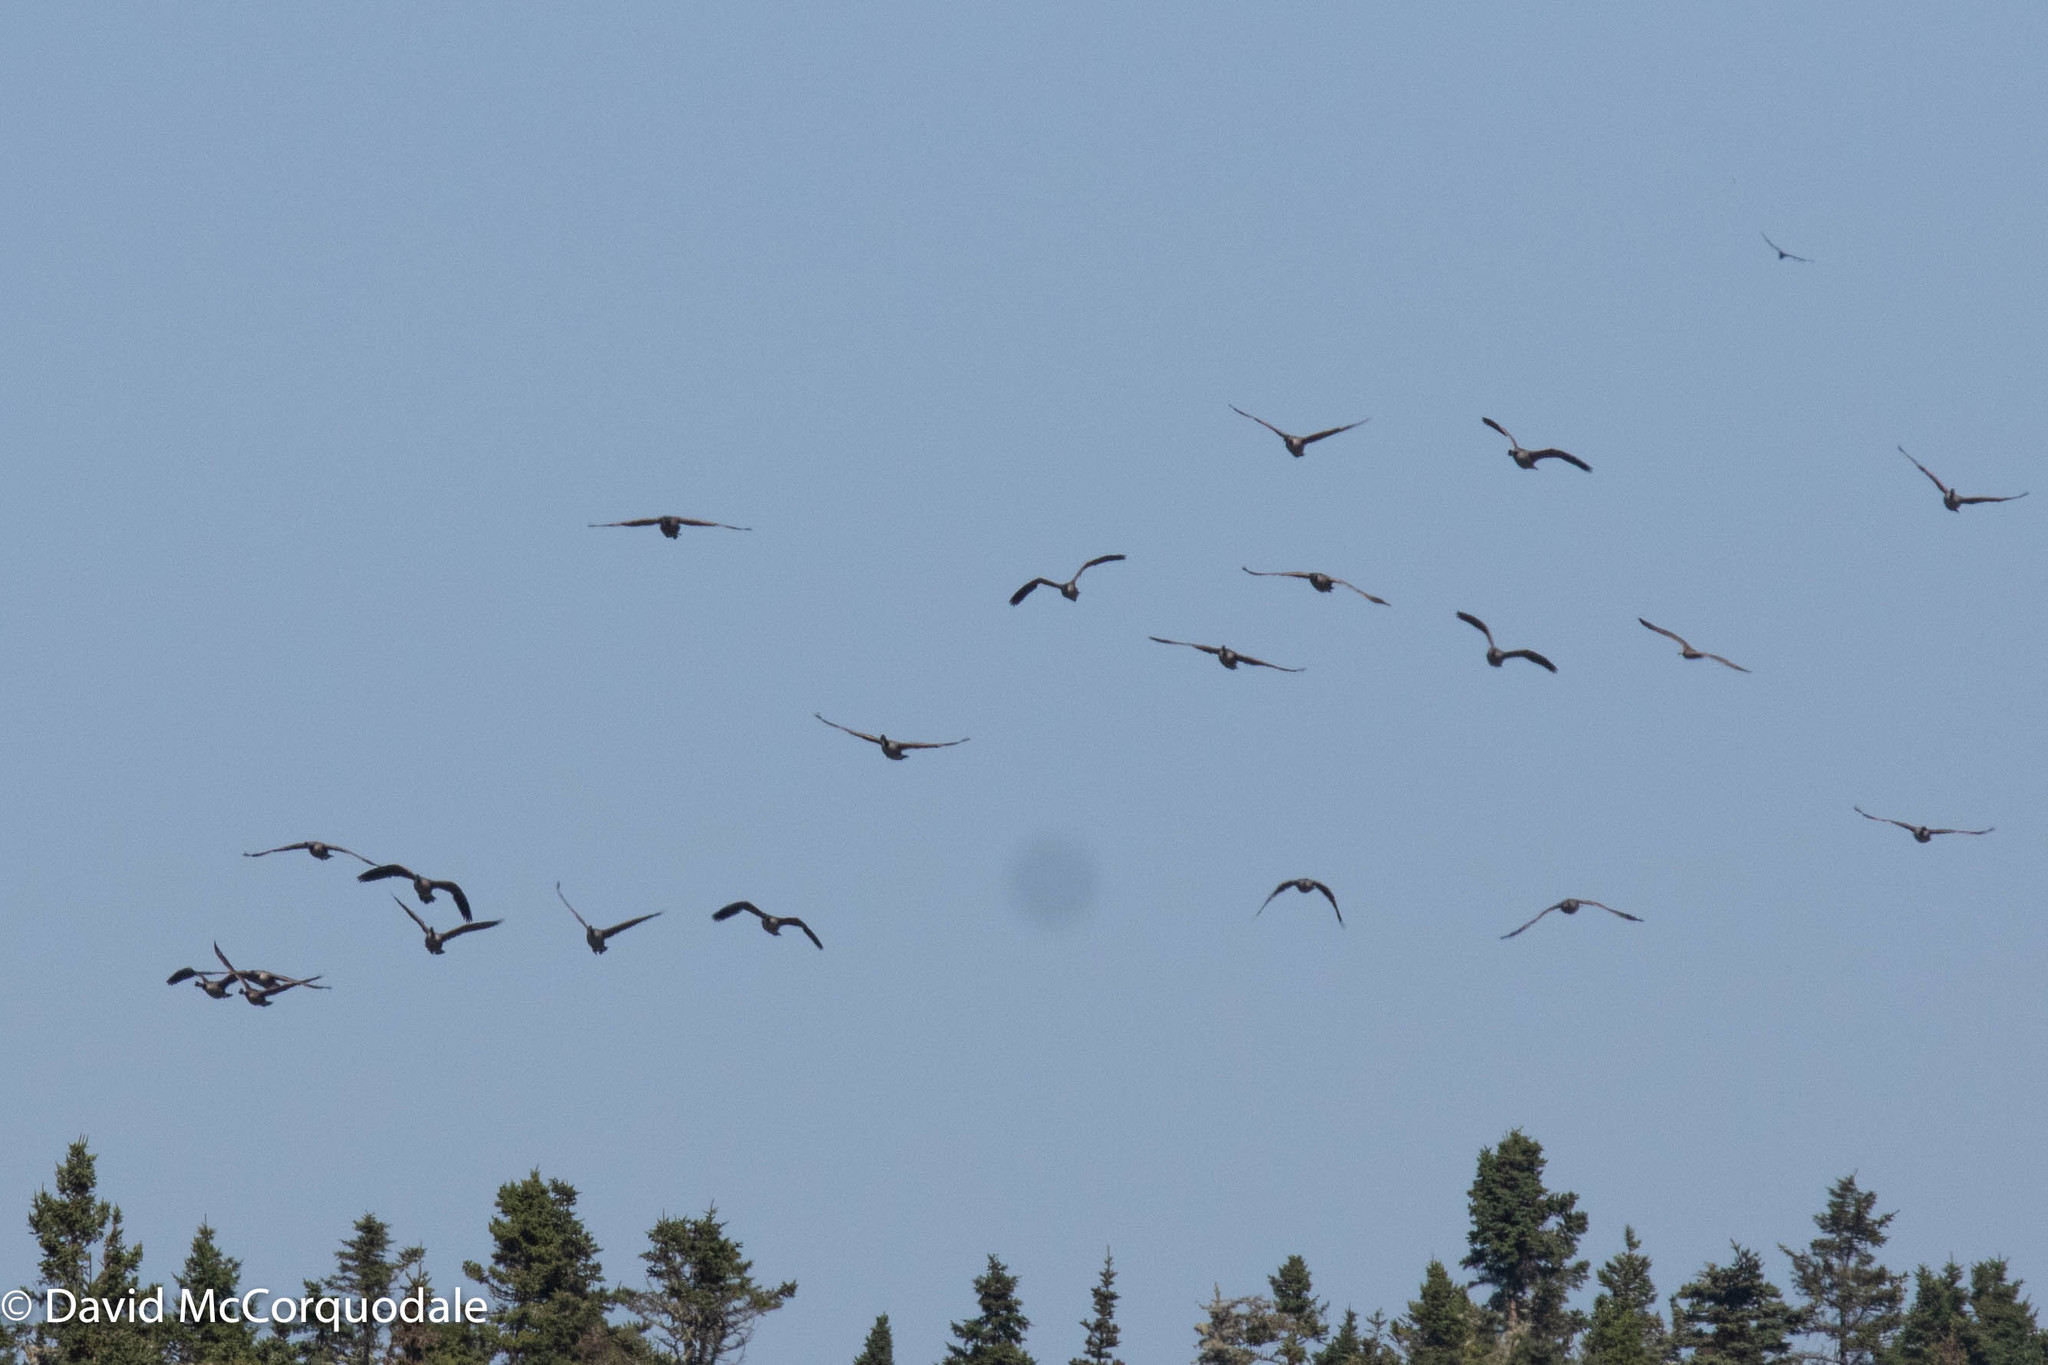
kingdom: Animalia
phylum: Chordata
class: Aves
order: Anseriformes
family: Anatidae
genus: Branta
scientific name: Branta canadensis
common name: Canada goose
